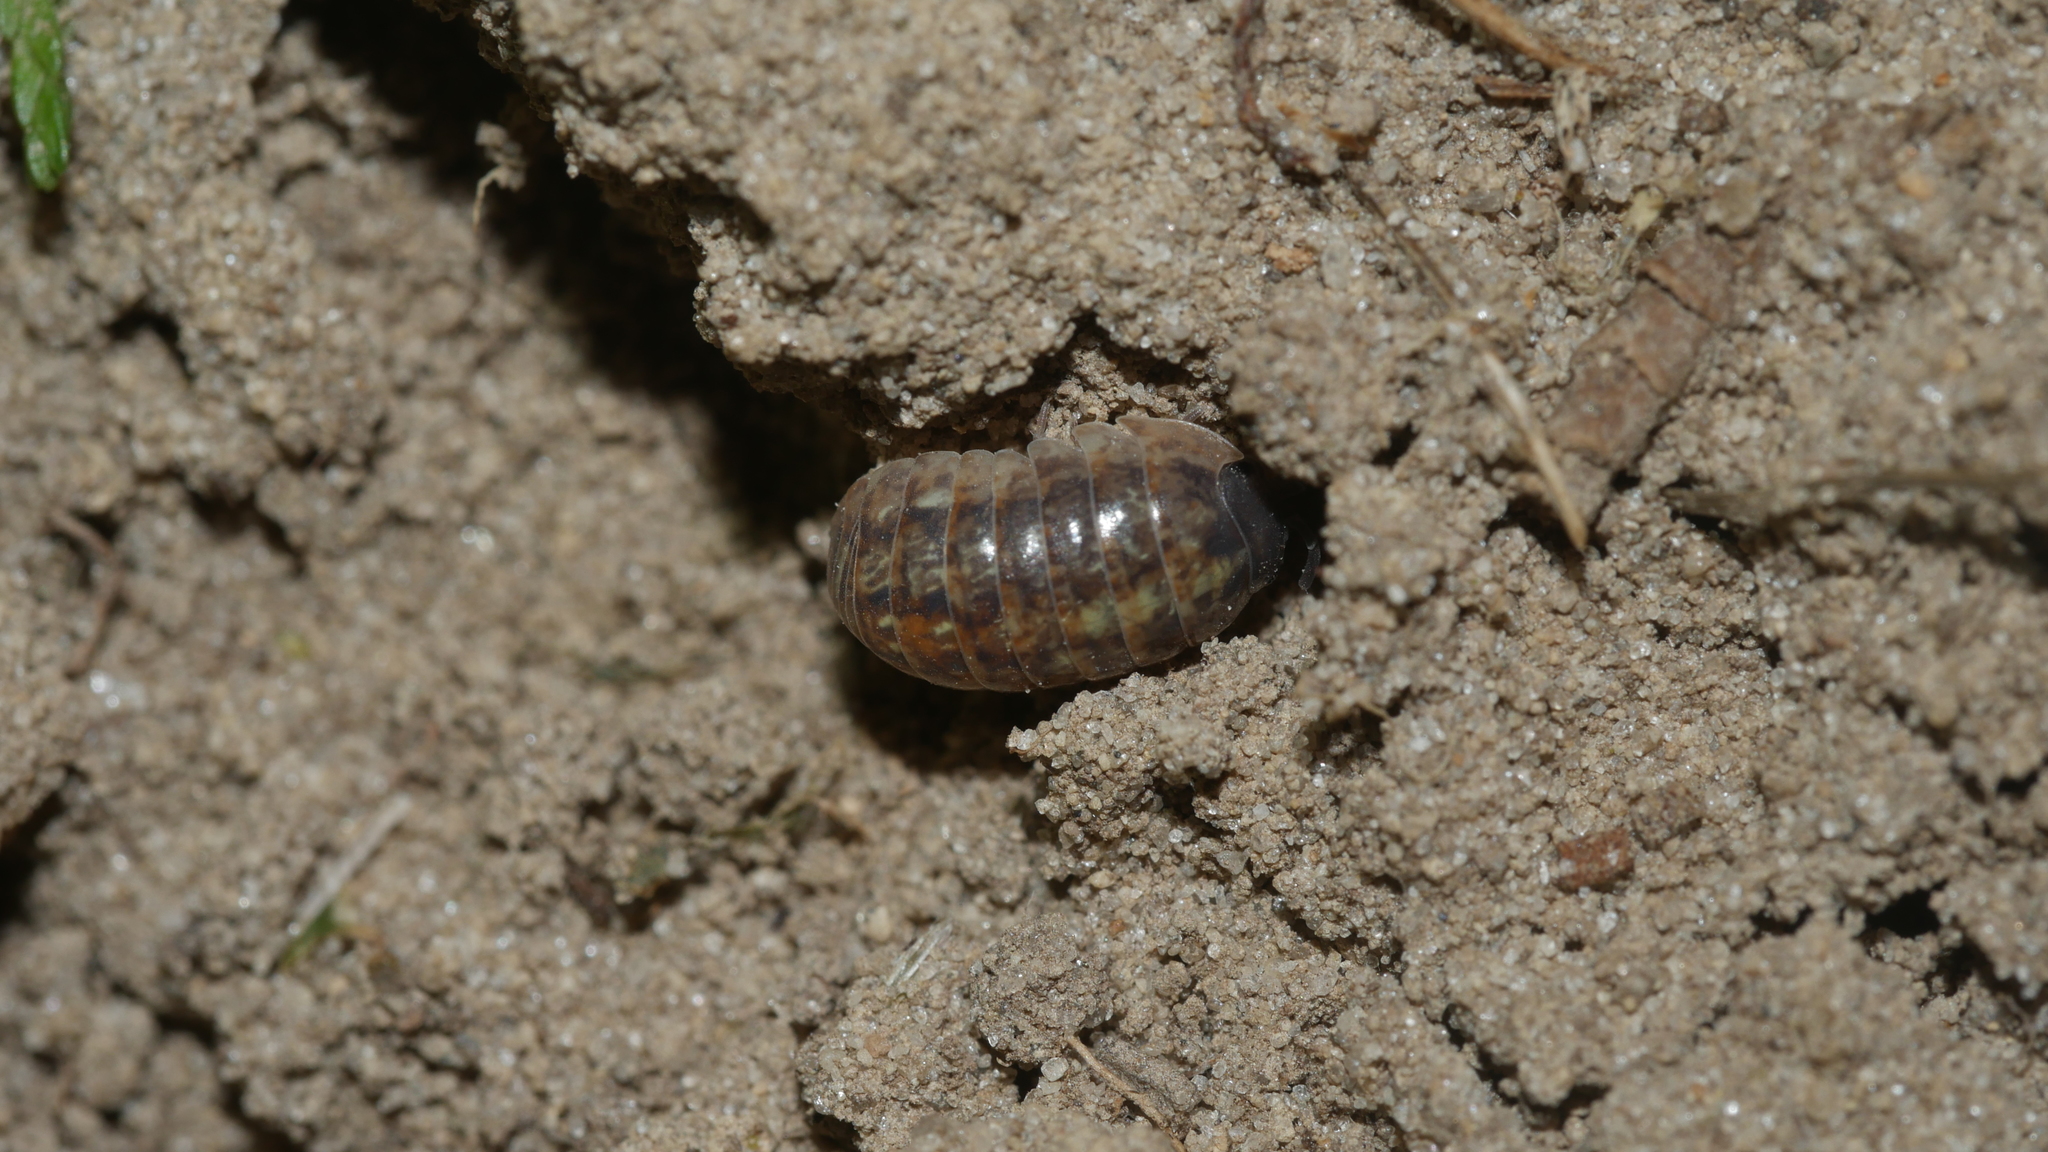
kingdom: Animalia
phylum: Arthropoda
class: Malacostraca
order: Isopoda
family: Armadillidiidae
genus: Armadillidium
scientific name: Armadillidium vulgare
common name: Common pill woodlouse
